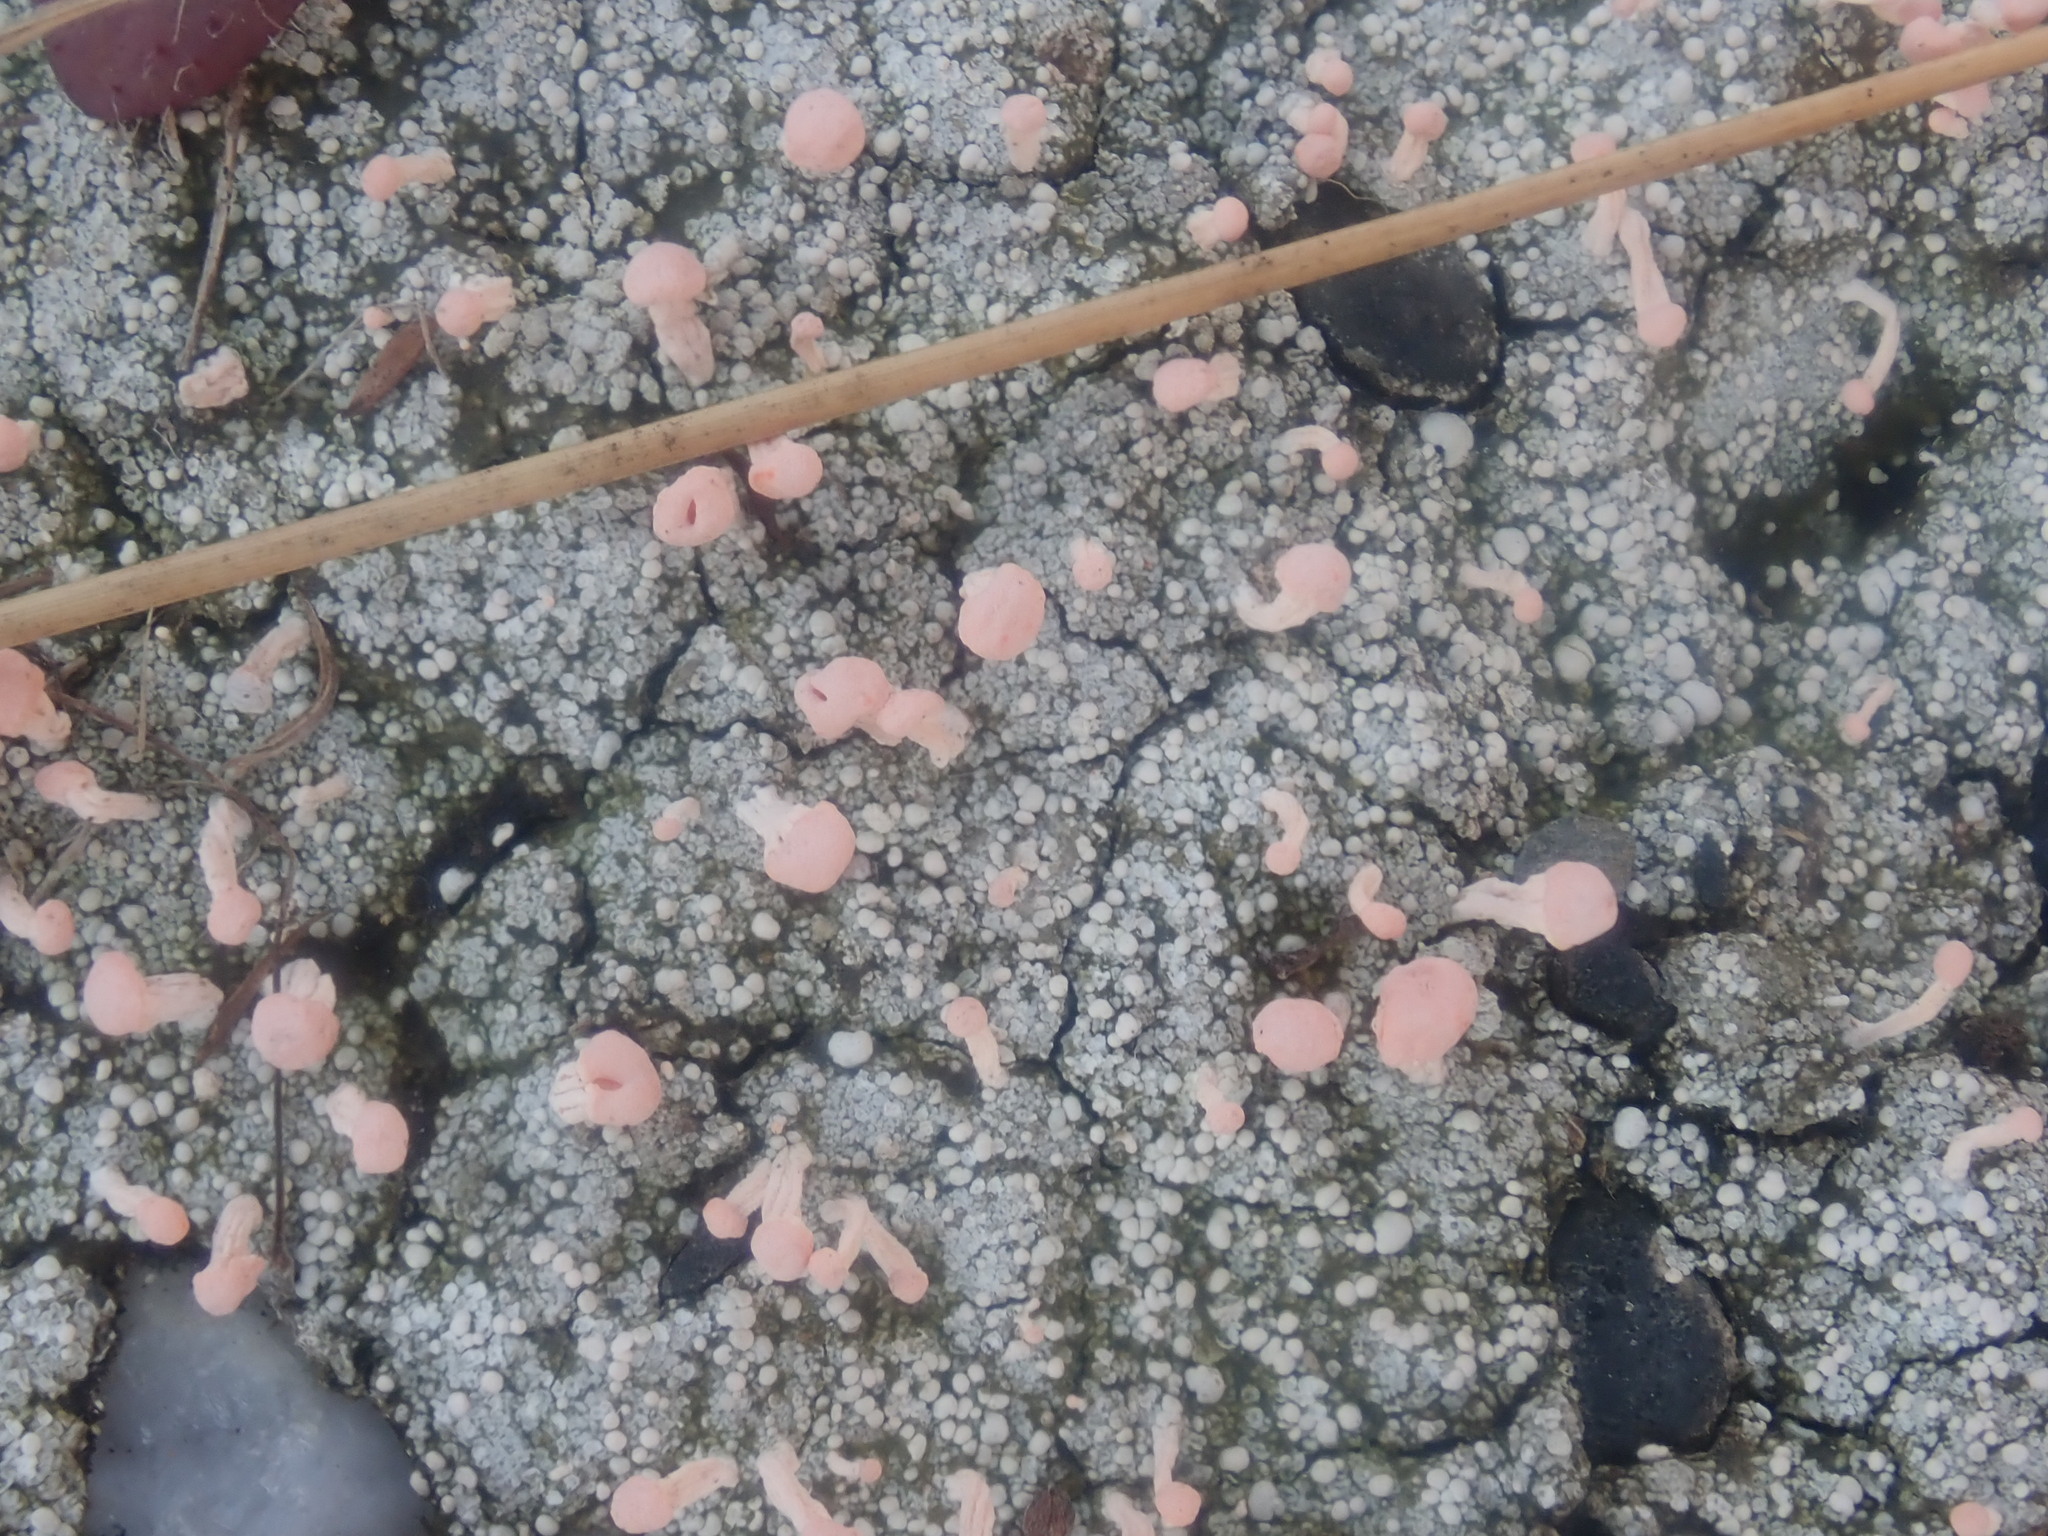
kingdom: Fungi
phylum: Ascomycota
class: Lecanoromycetes
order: Pertusariales
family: Icmadophilaceae
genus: Dibaeis
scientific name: Dibaeis baeomyces
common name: Pink earth lichen
